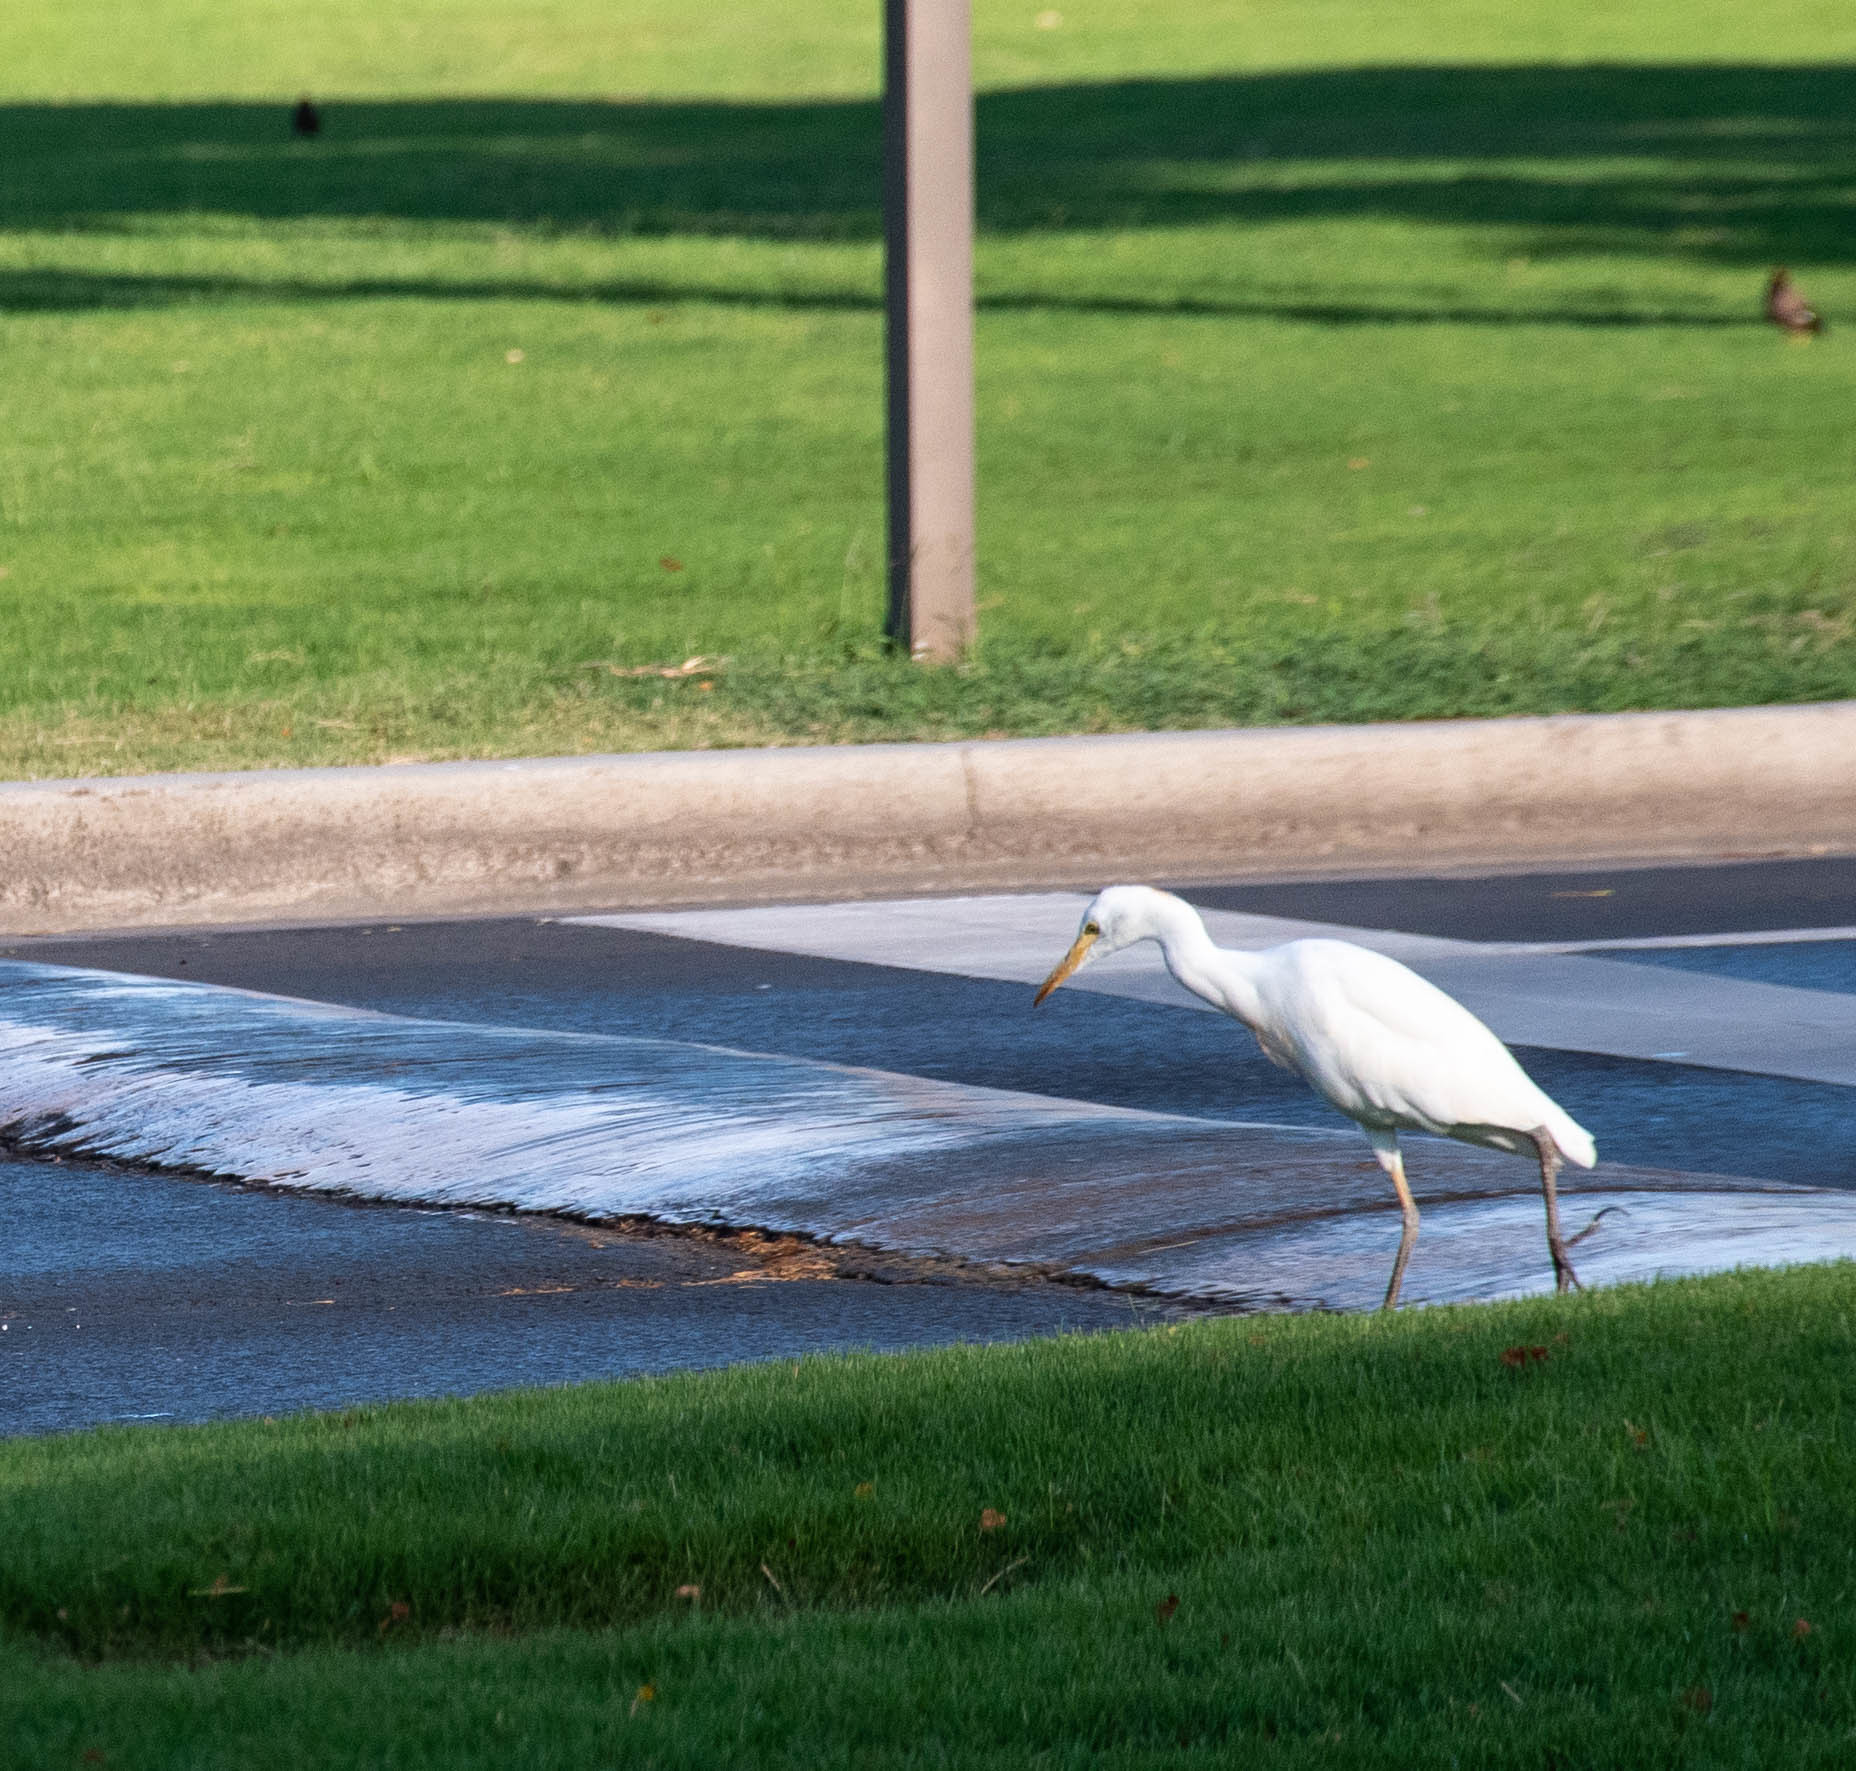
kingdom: Animalia
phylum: Chordata
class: Aves
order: Pelecaniformes
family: Ardeidae
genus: Bubulcus
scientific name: Bubulcus ibis
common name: Cattle egret
